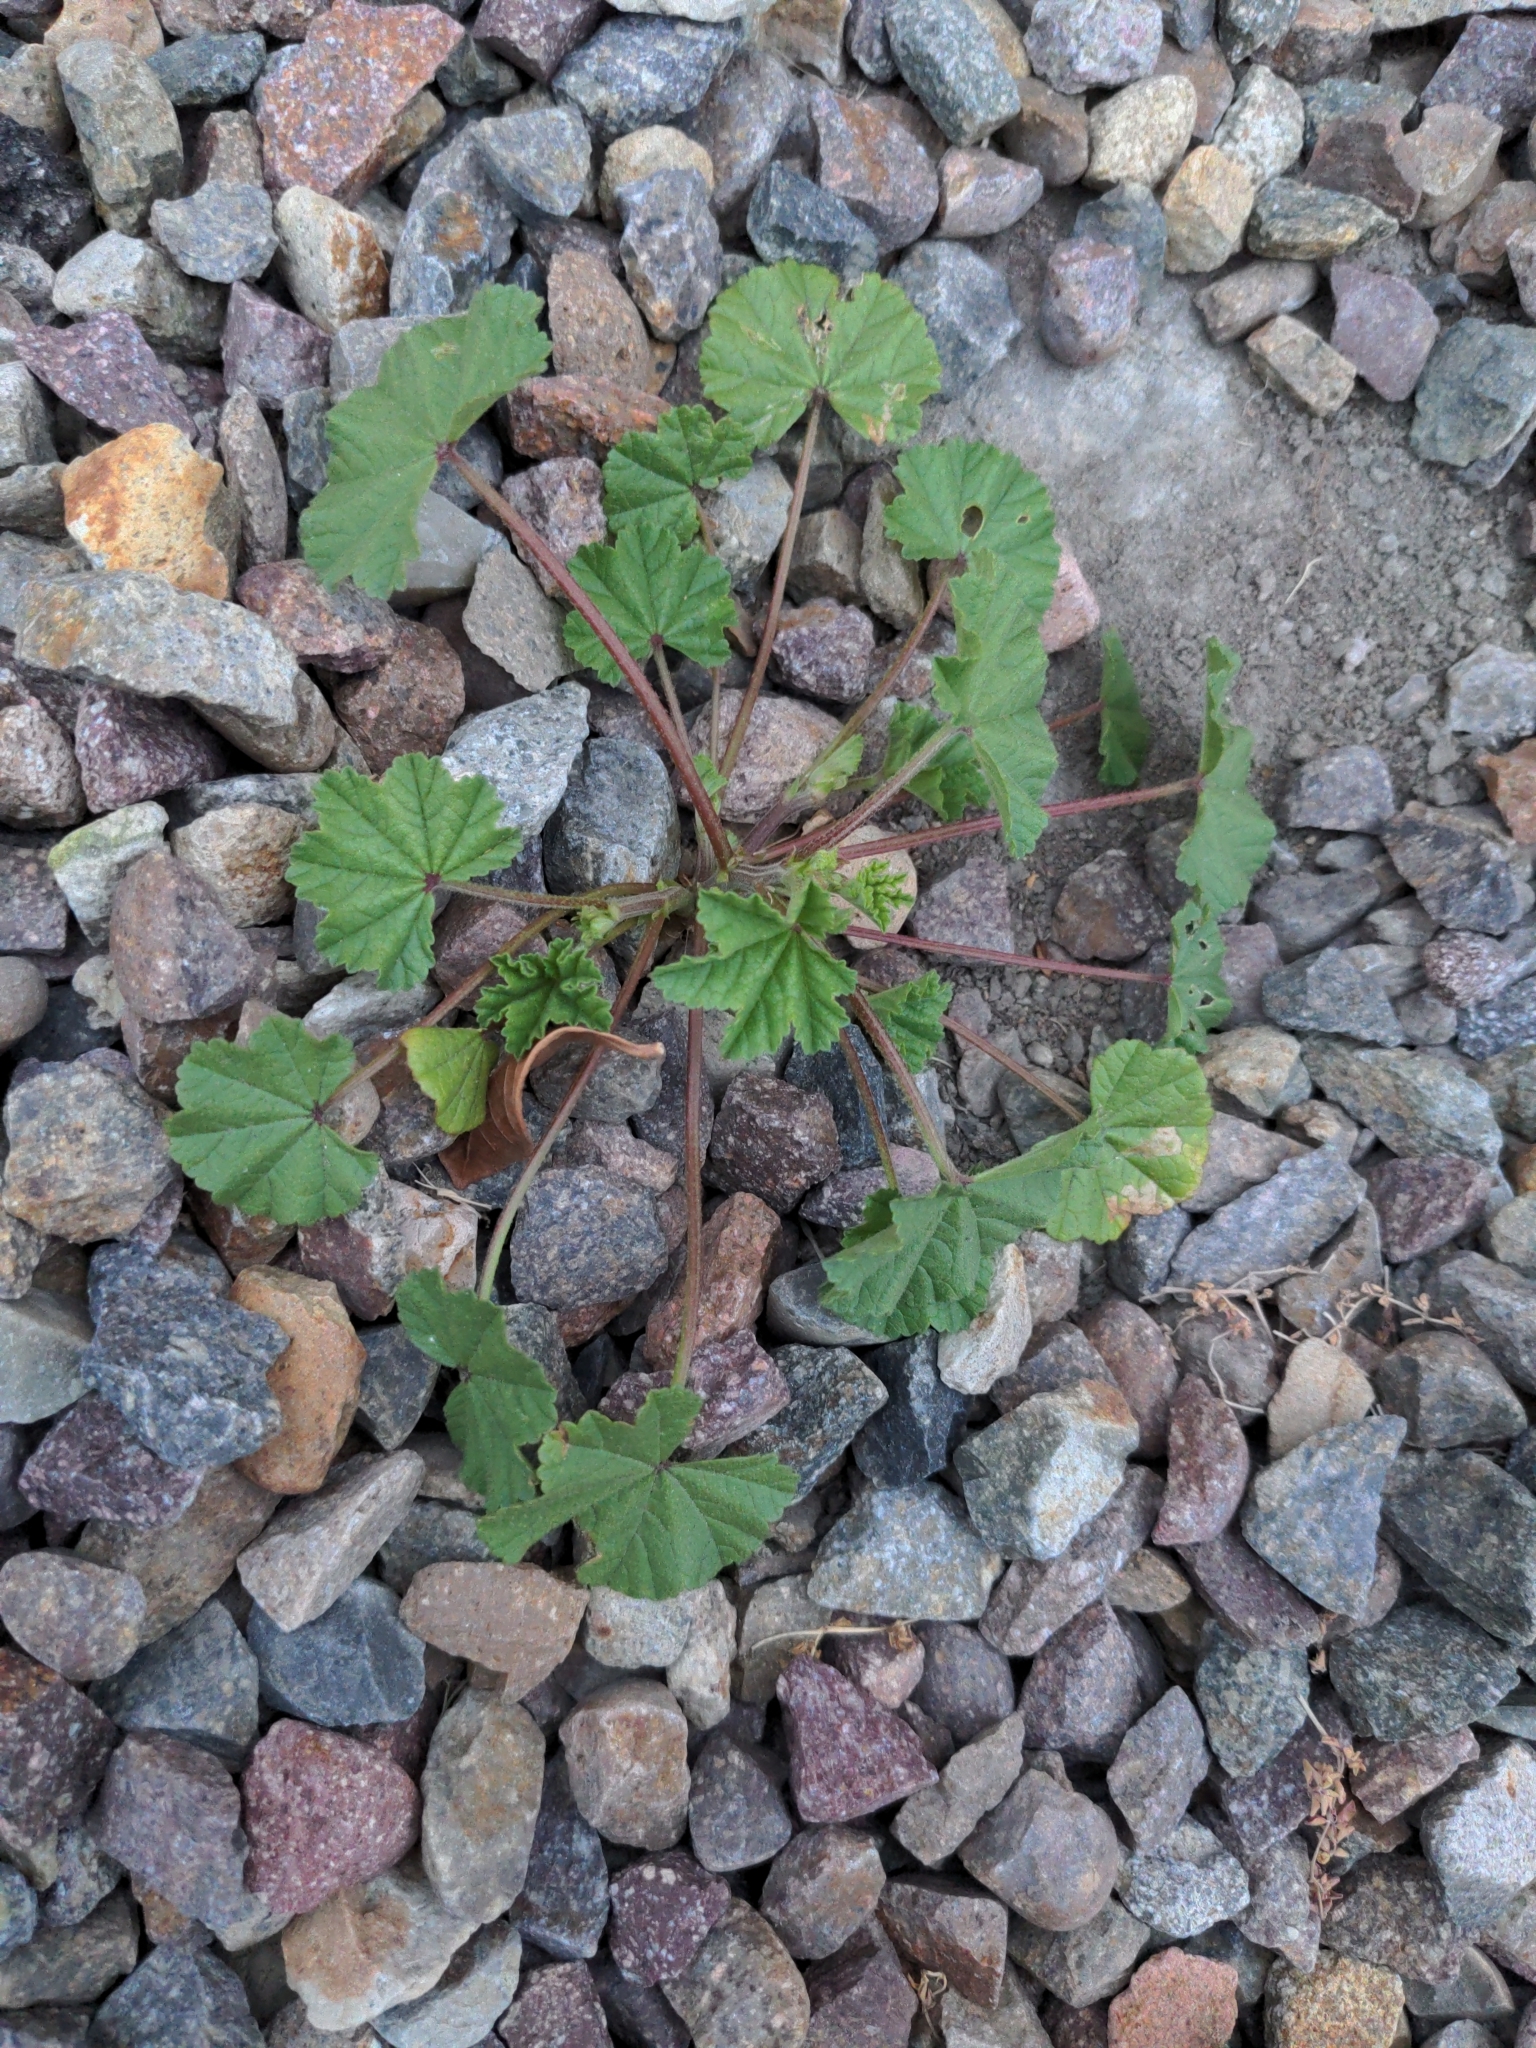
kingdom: Plantae
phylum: Tracheophyta
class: Magnoliopsida
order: Malvales
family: Malvaceae
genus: Malva
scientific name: Malva
